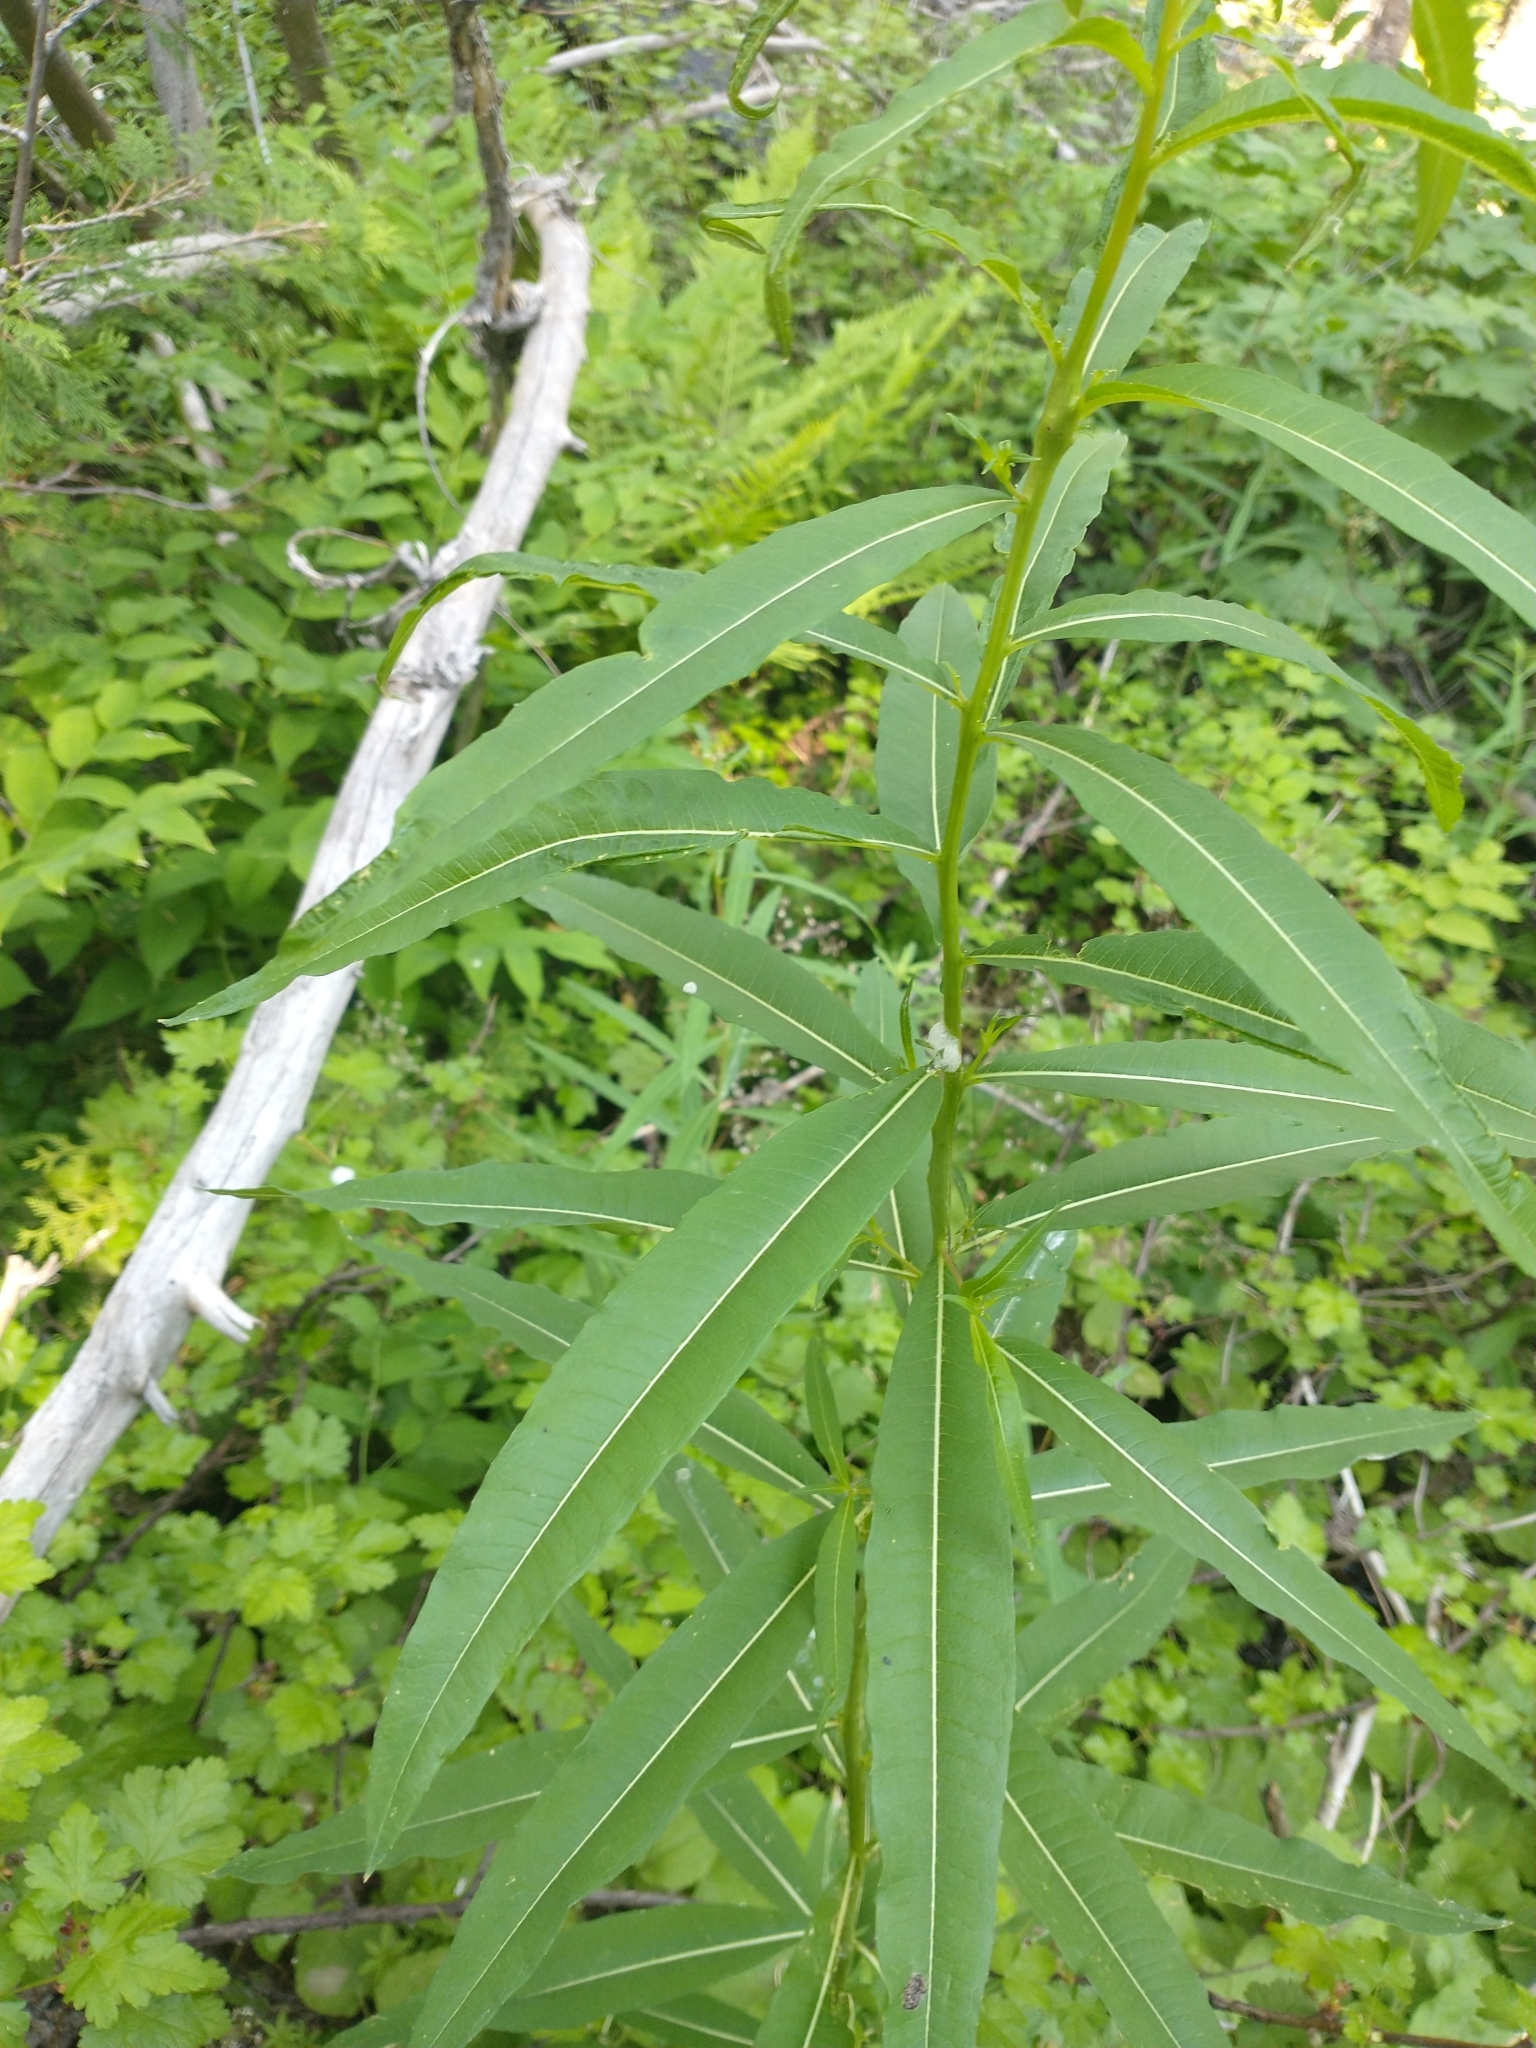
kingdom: Plantae
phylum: Tracheophyta
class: Magnoliopsida
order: Myrtales
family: Onagraceae
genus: Chamaenerion
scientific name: Chamaenerion angustifolium
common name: Fireweed
